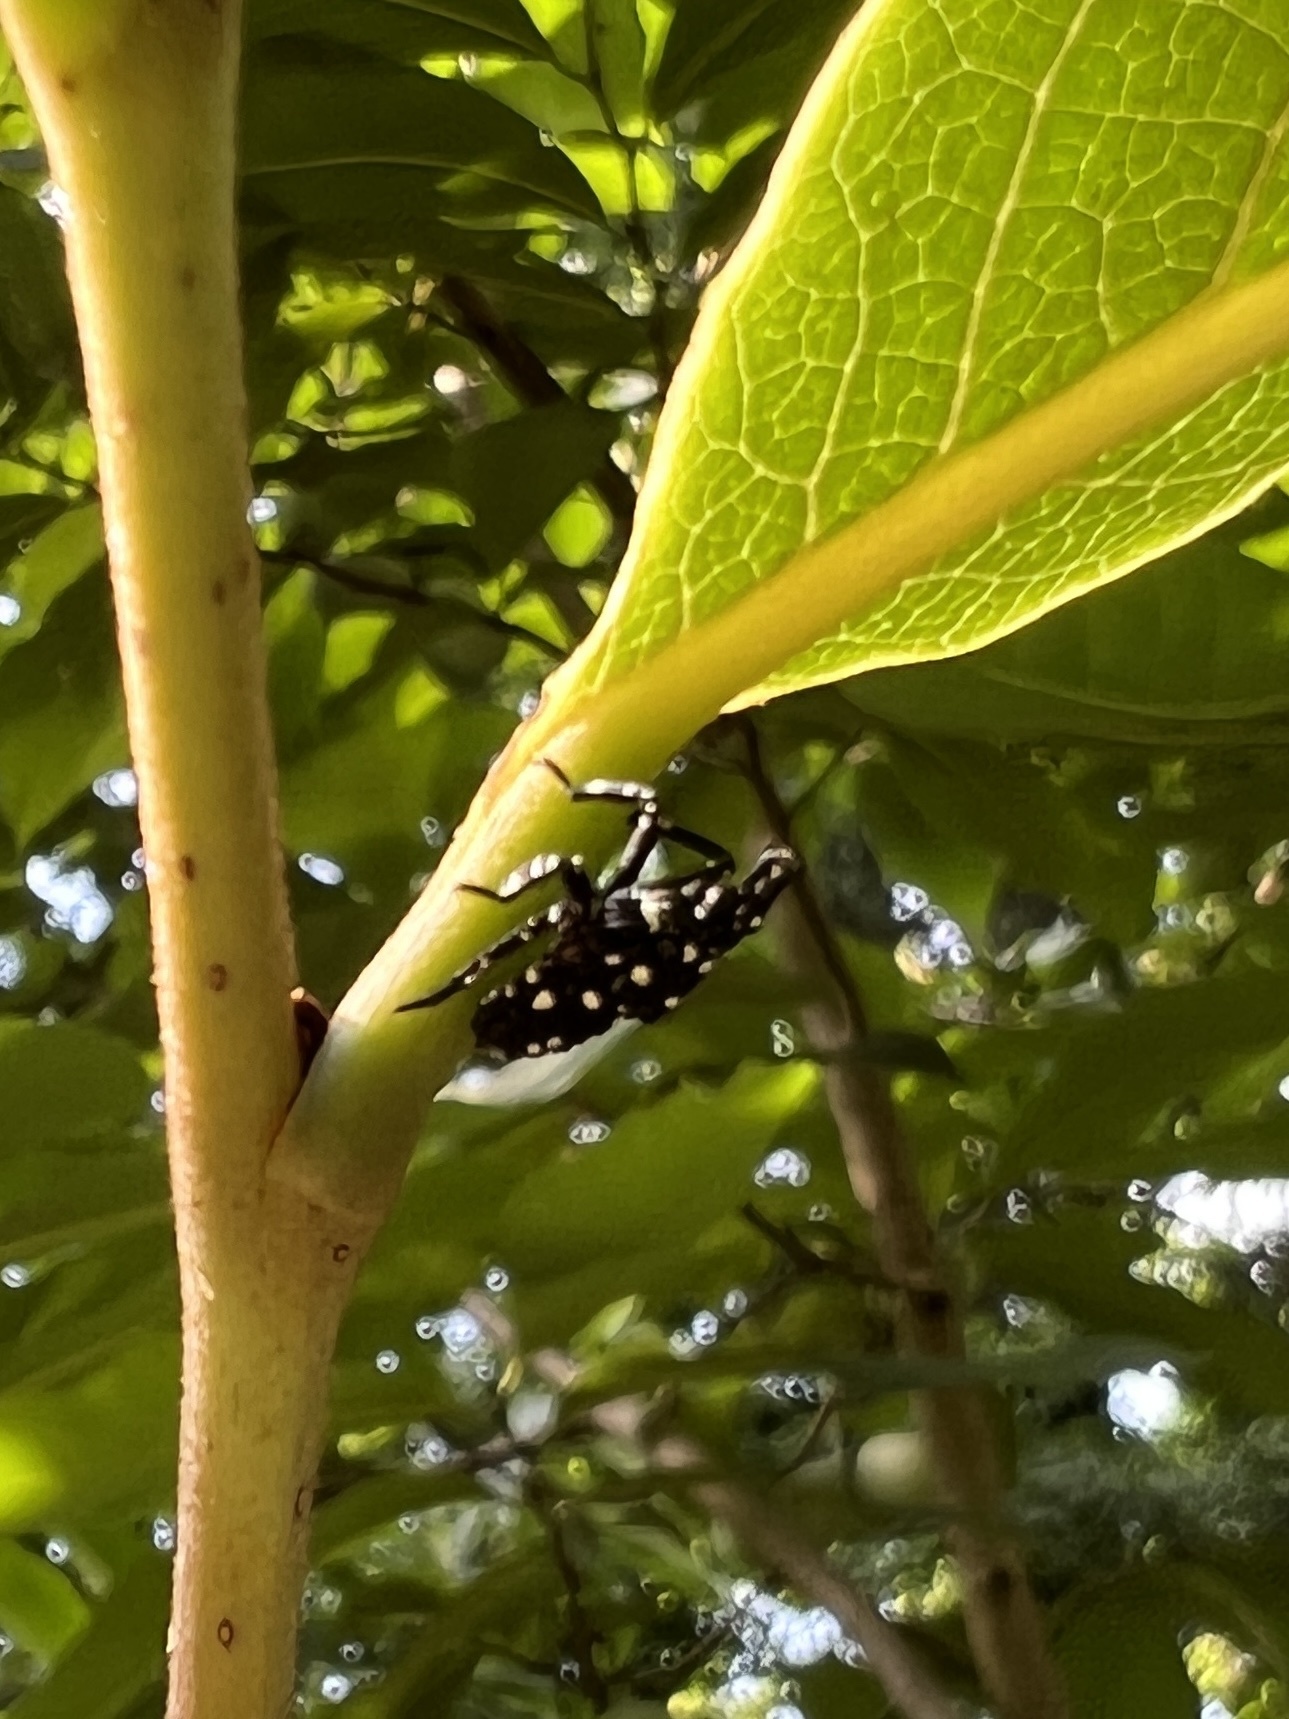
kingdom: Animalia
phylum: Arthropoda
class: Insecta
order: Hemiptera
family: Fulgoridae
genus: Lycorma
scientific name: Lycorma delicatula
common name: Spotted lanternfly
